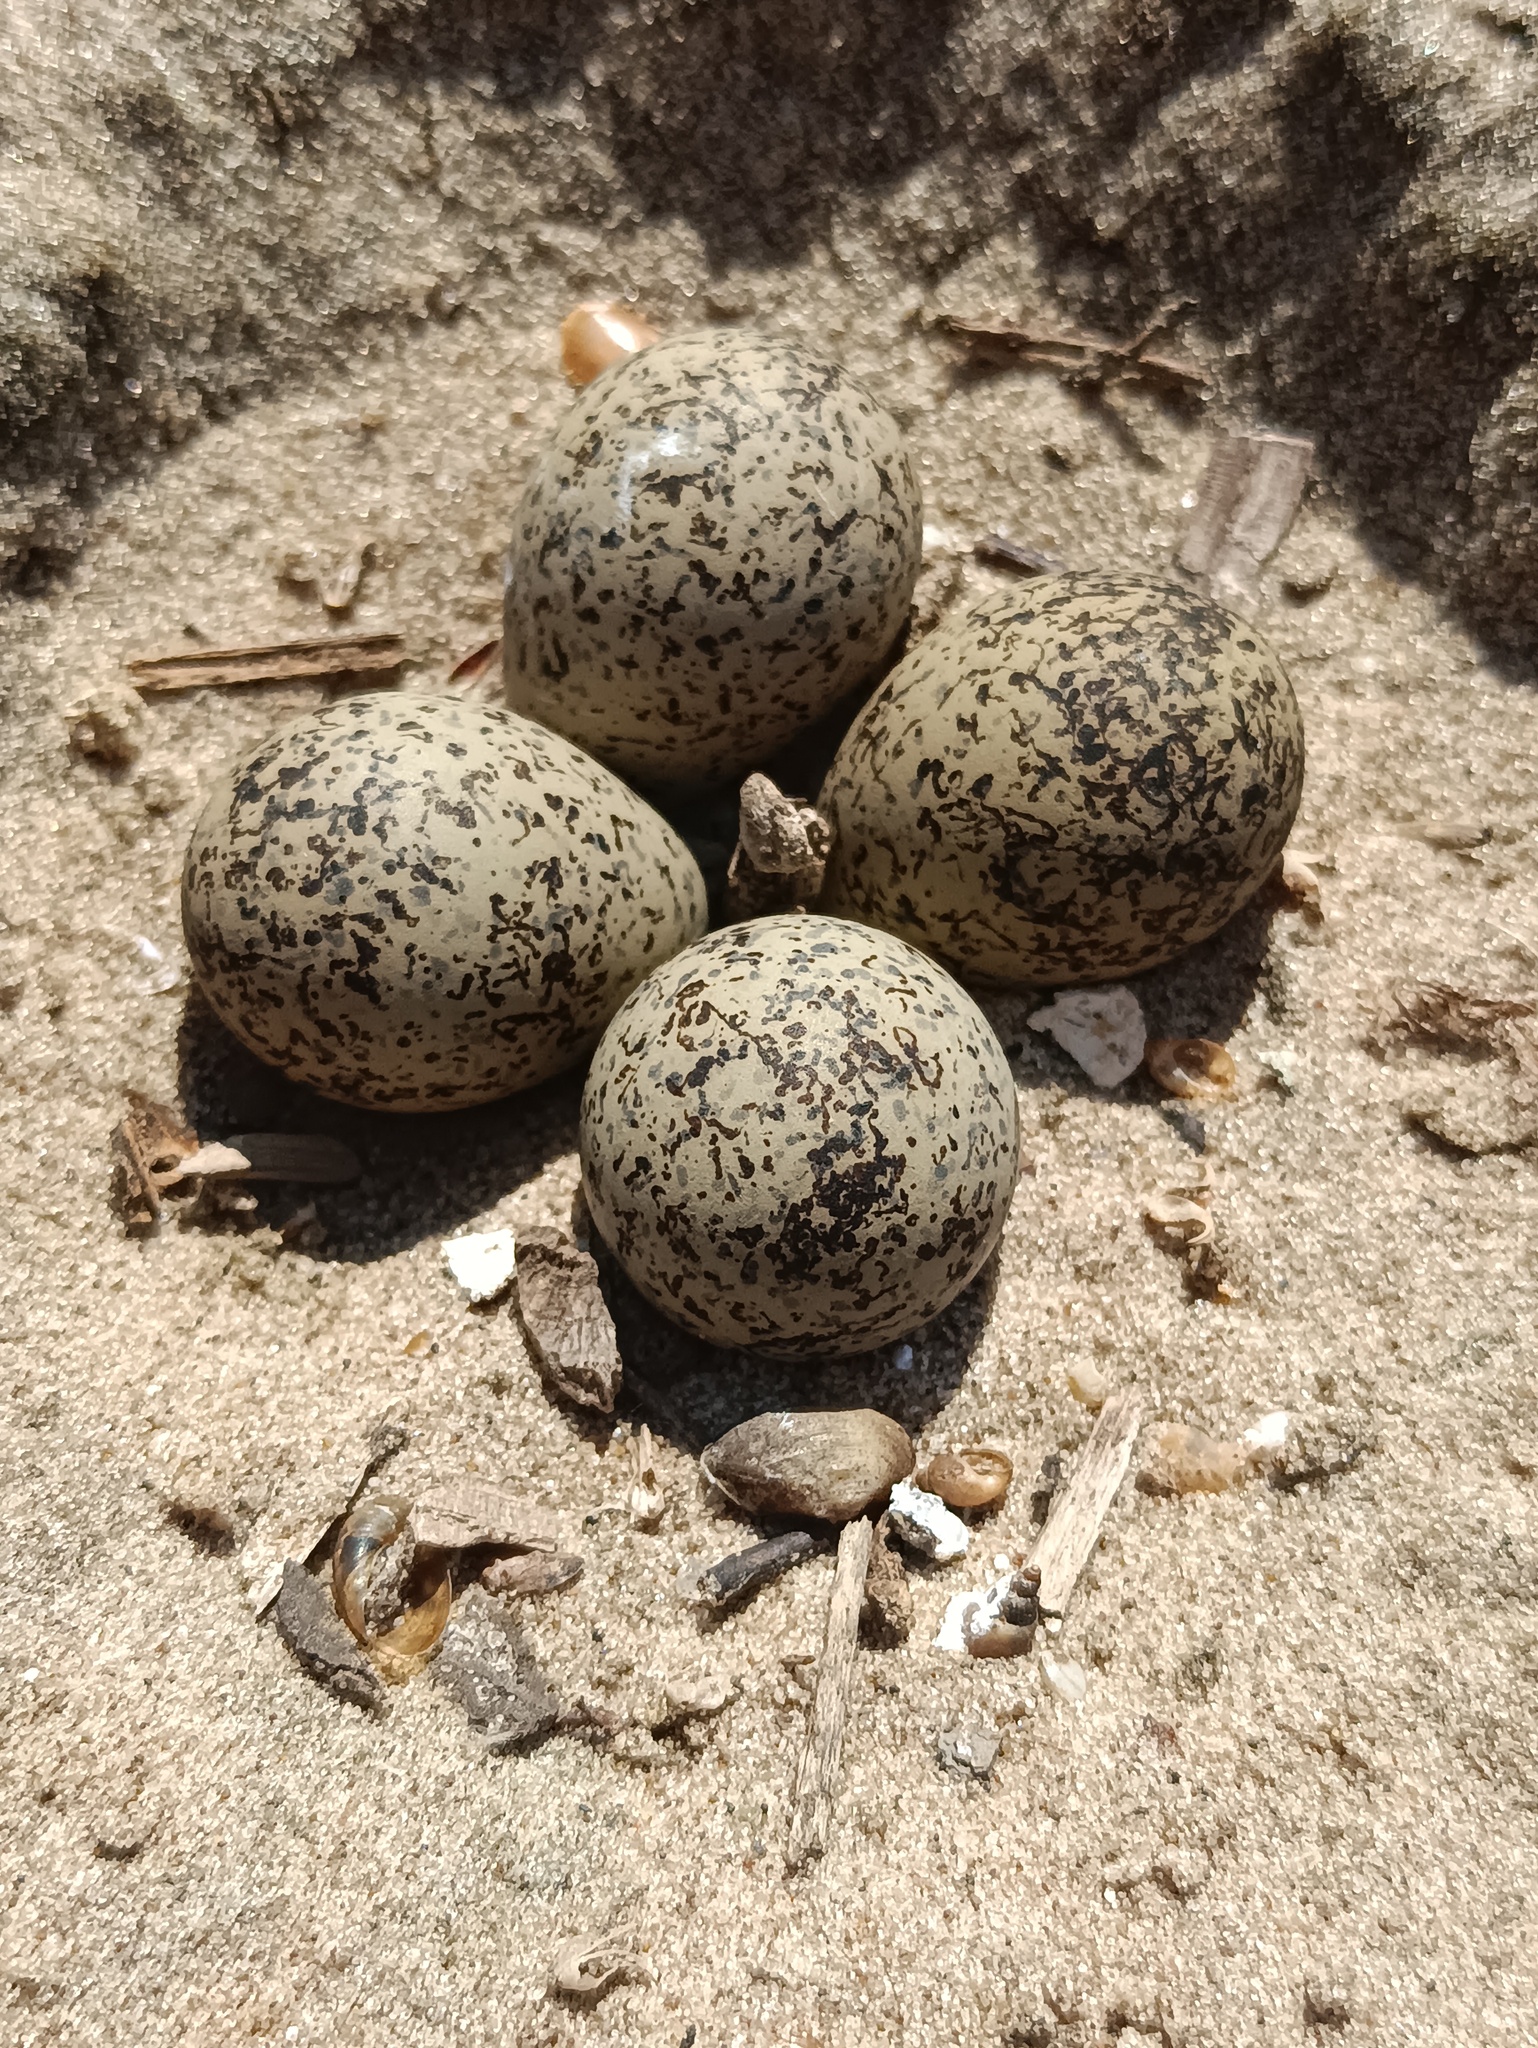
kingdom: Animalia
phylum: Chordata
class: Aves
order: Charadriiformes
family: Charadriidae
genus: Charadrius
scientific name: Charadrius dubius
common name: Little ringed plover
